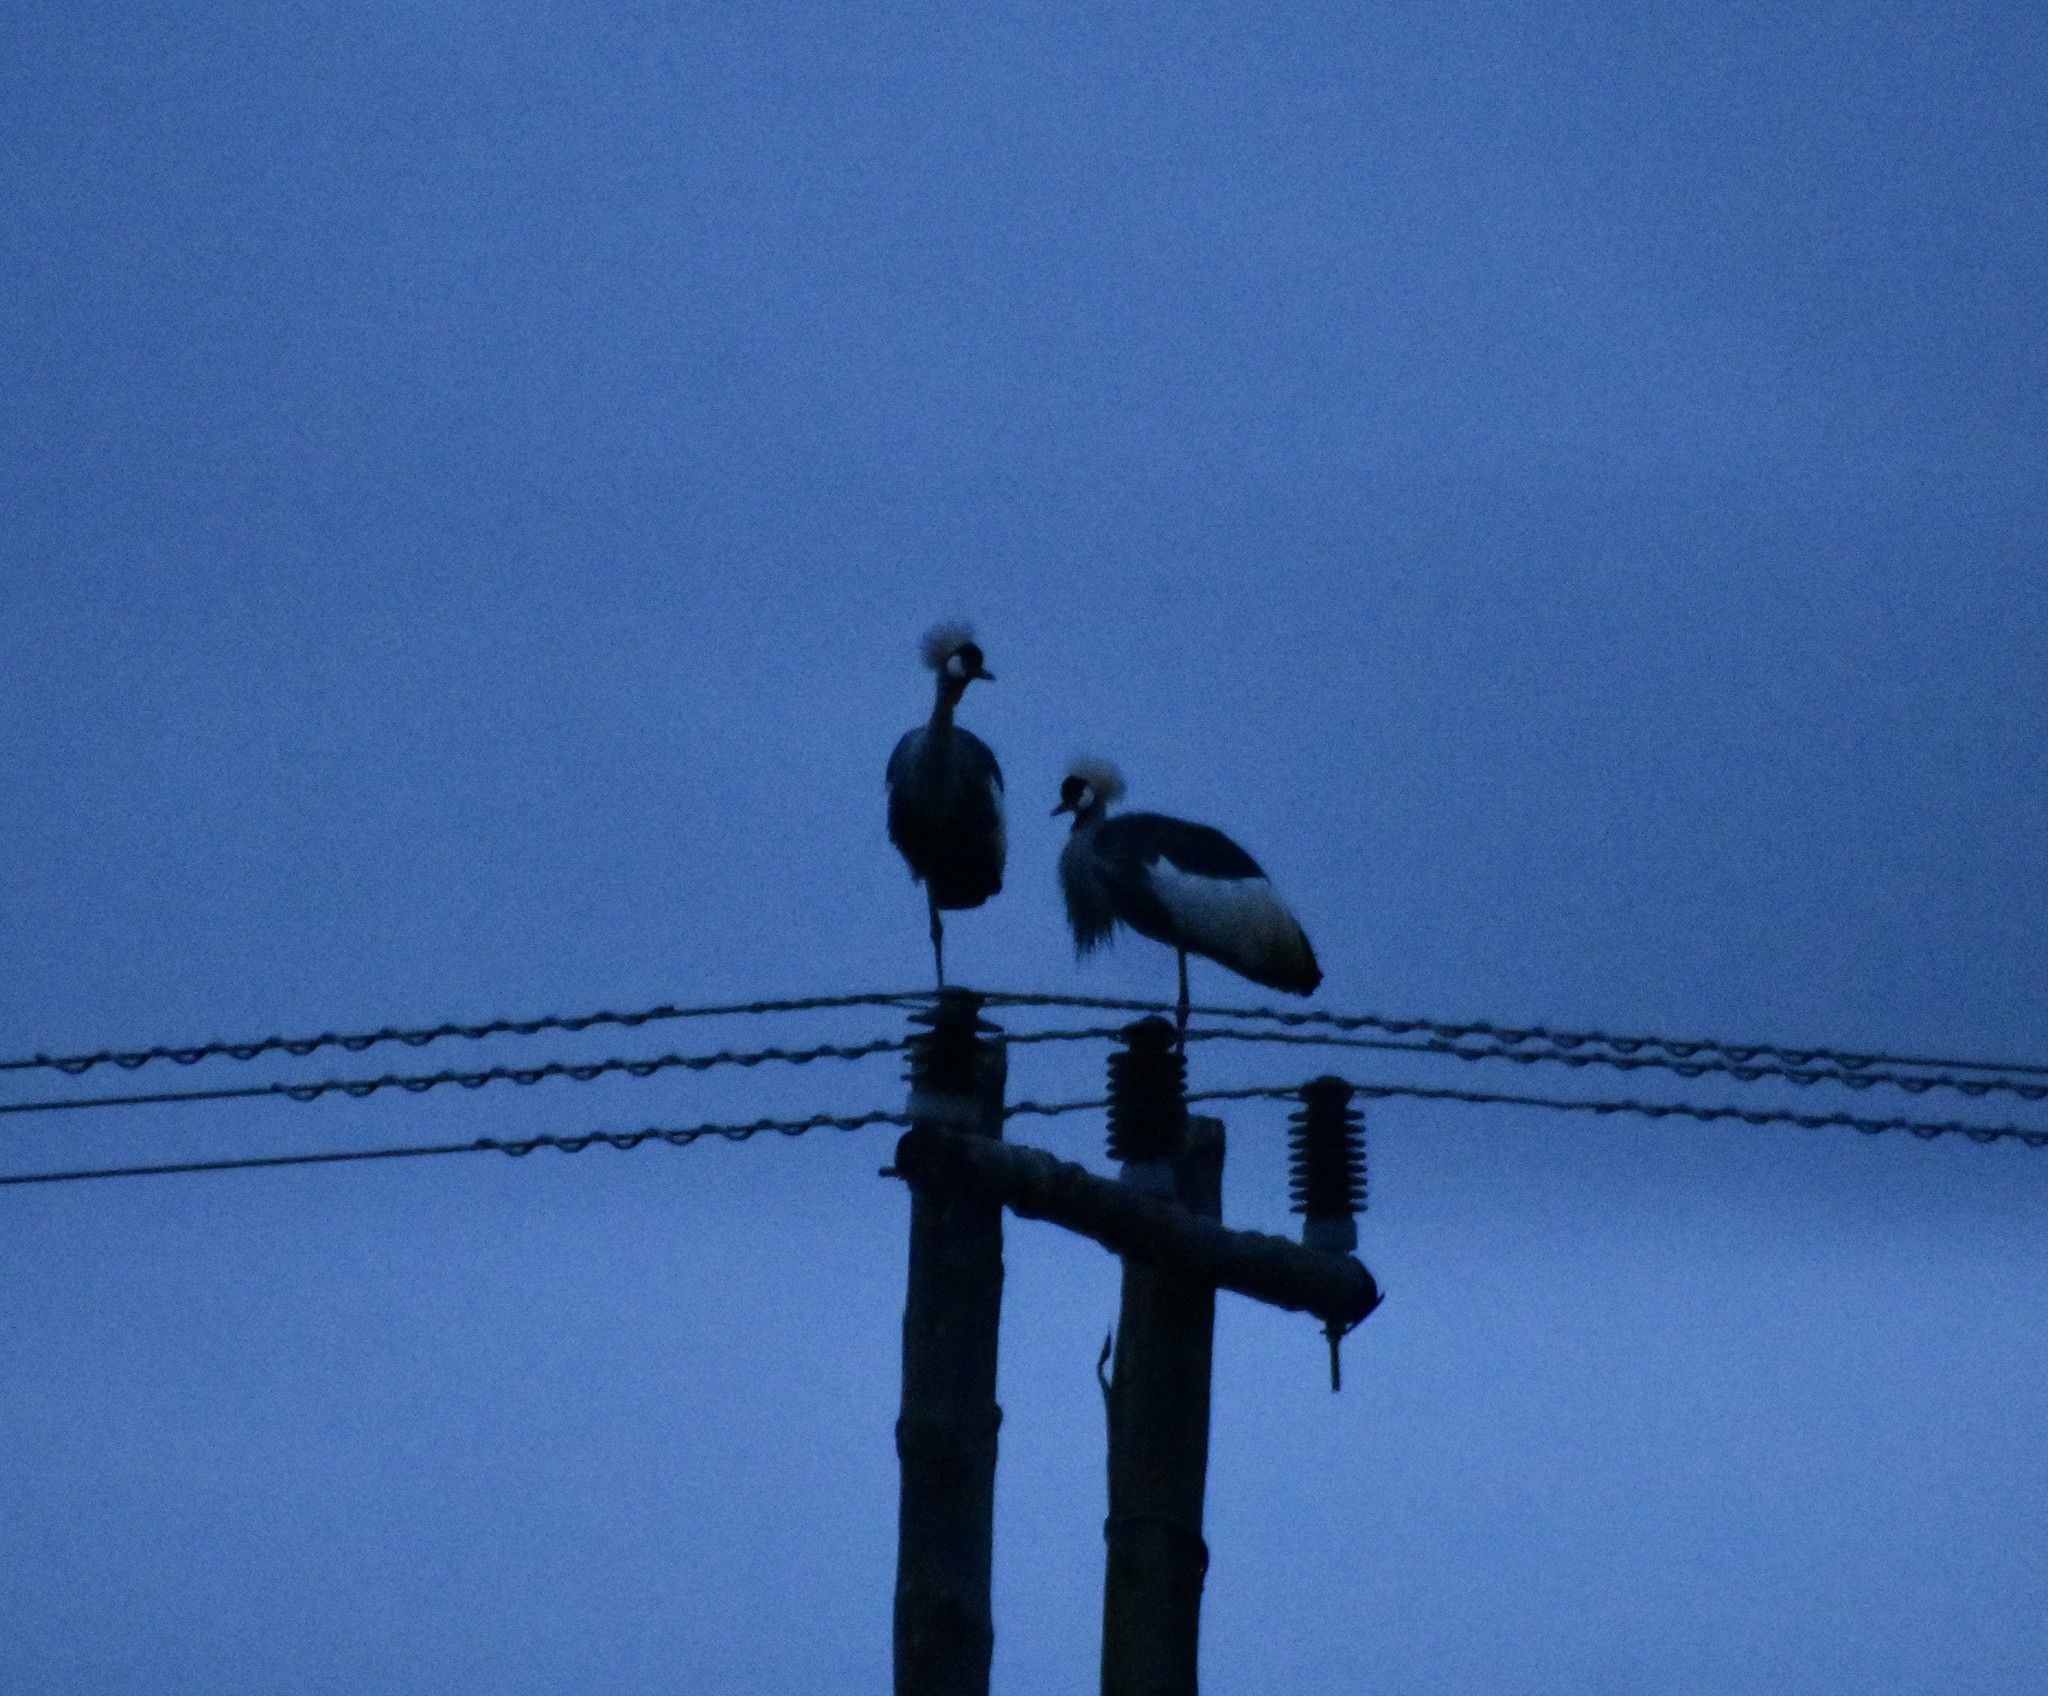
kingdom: Animalia
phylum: Chordata
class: Aves
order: Gruiformes
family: Gruidae
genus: Balearica
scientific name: Balearica regulorum
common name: Grey crowned crane
